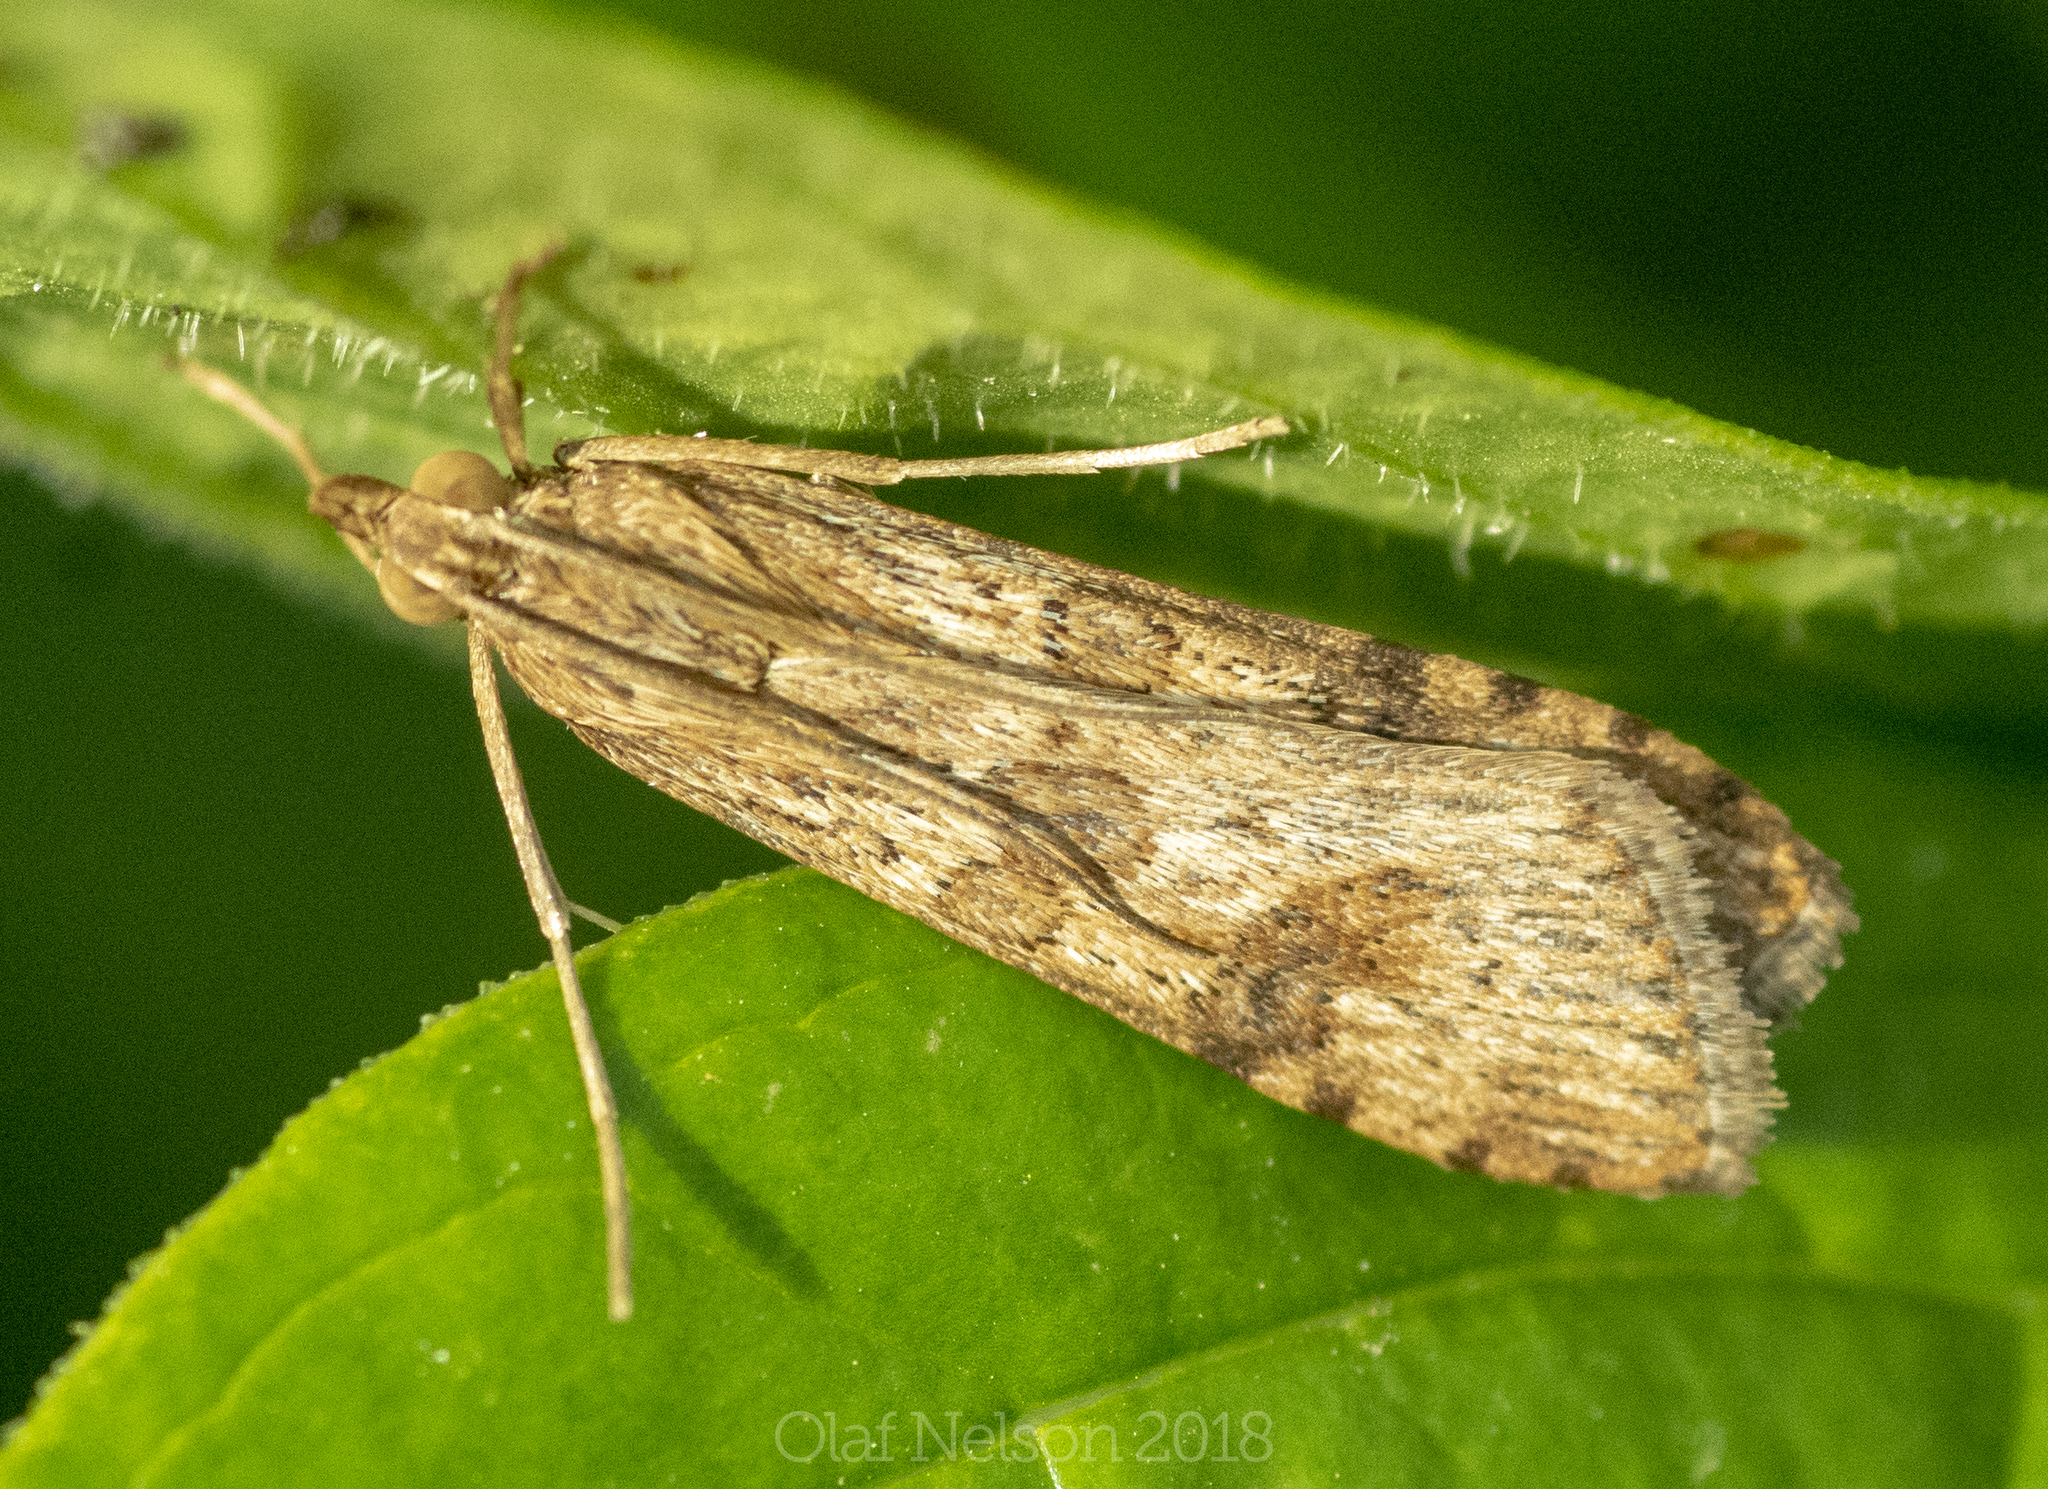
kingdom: Animalia
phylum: Arthropoda
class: Insecta
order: Lepidoptera
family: Crambidae
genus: Nomophila
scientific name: Nomophila nearctica
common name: American rush veneer
